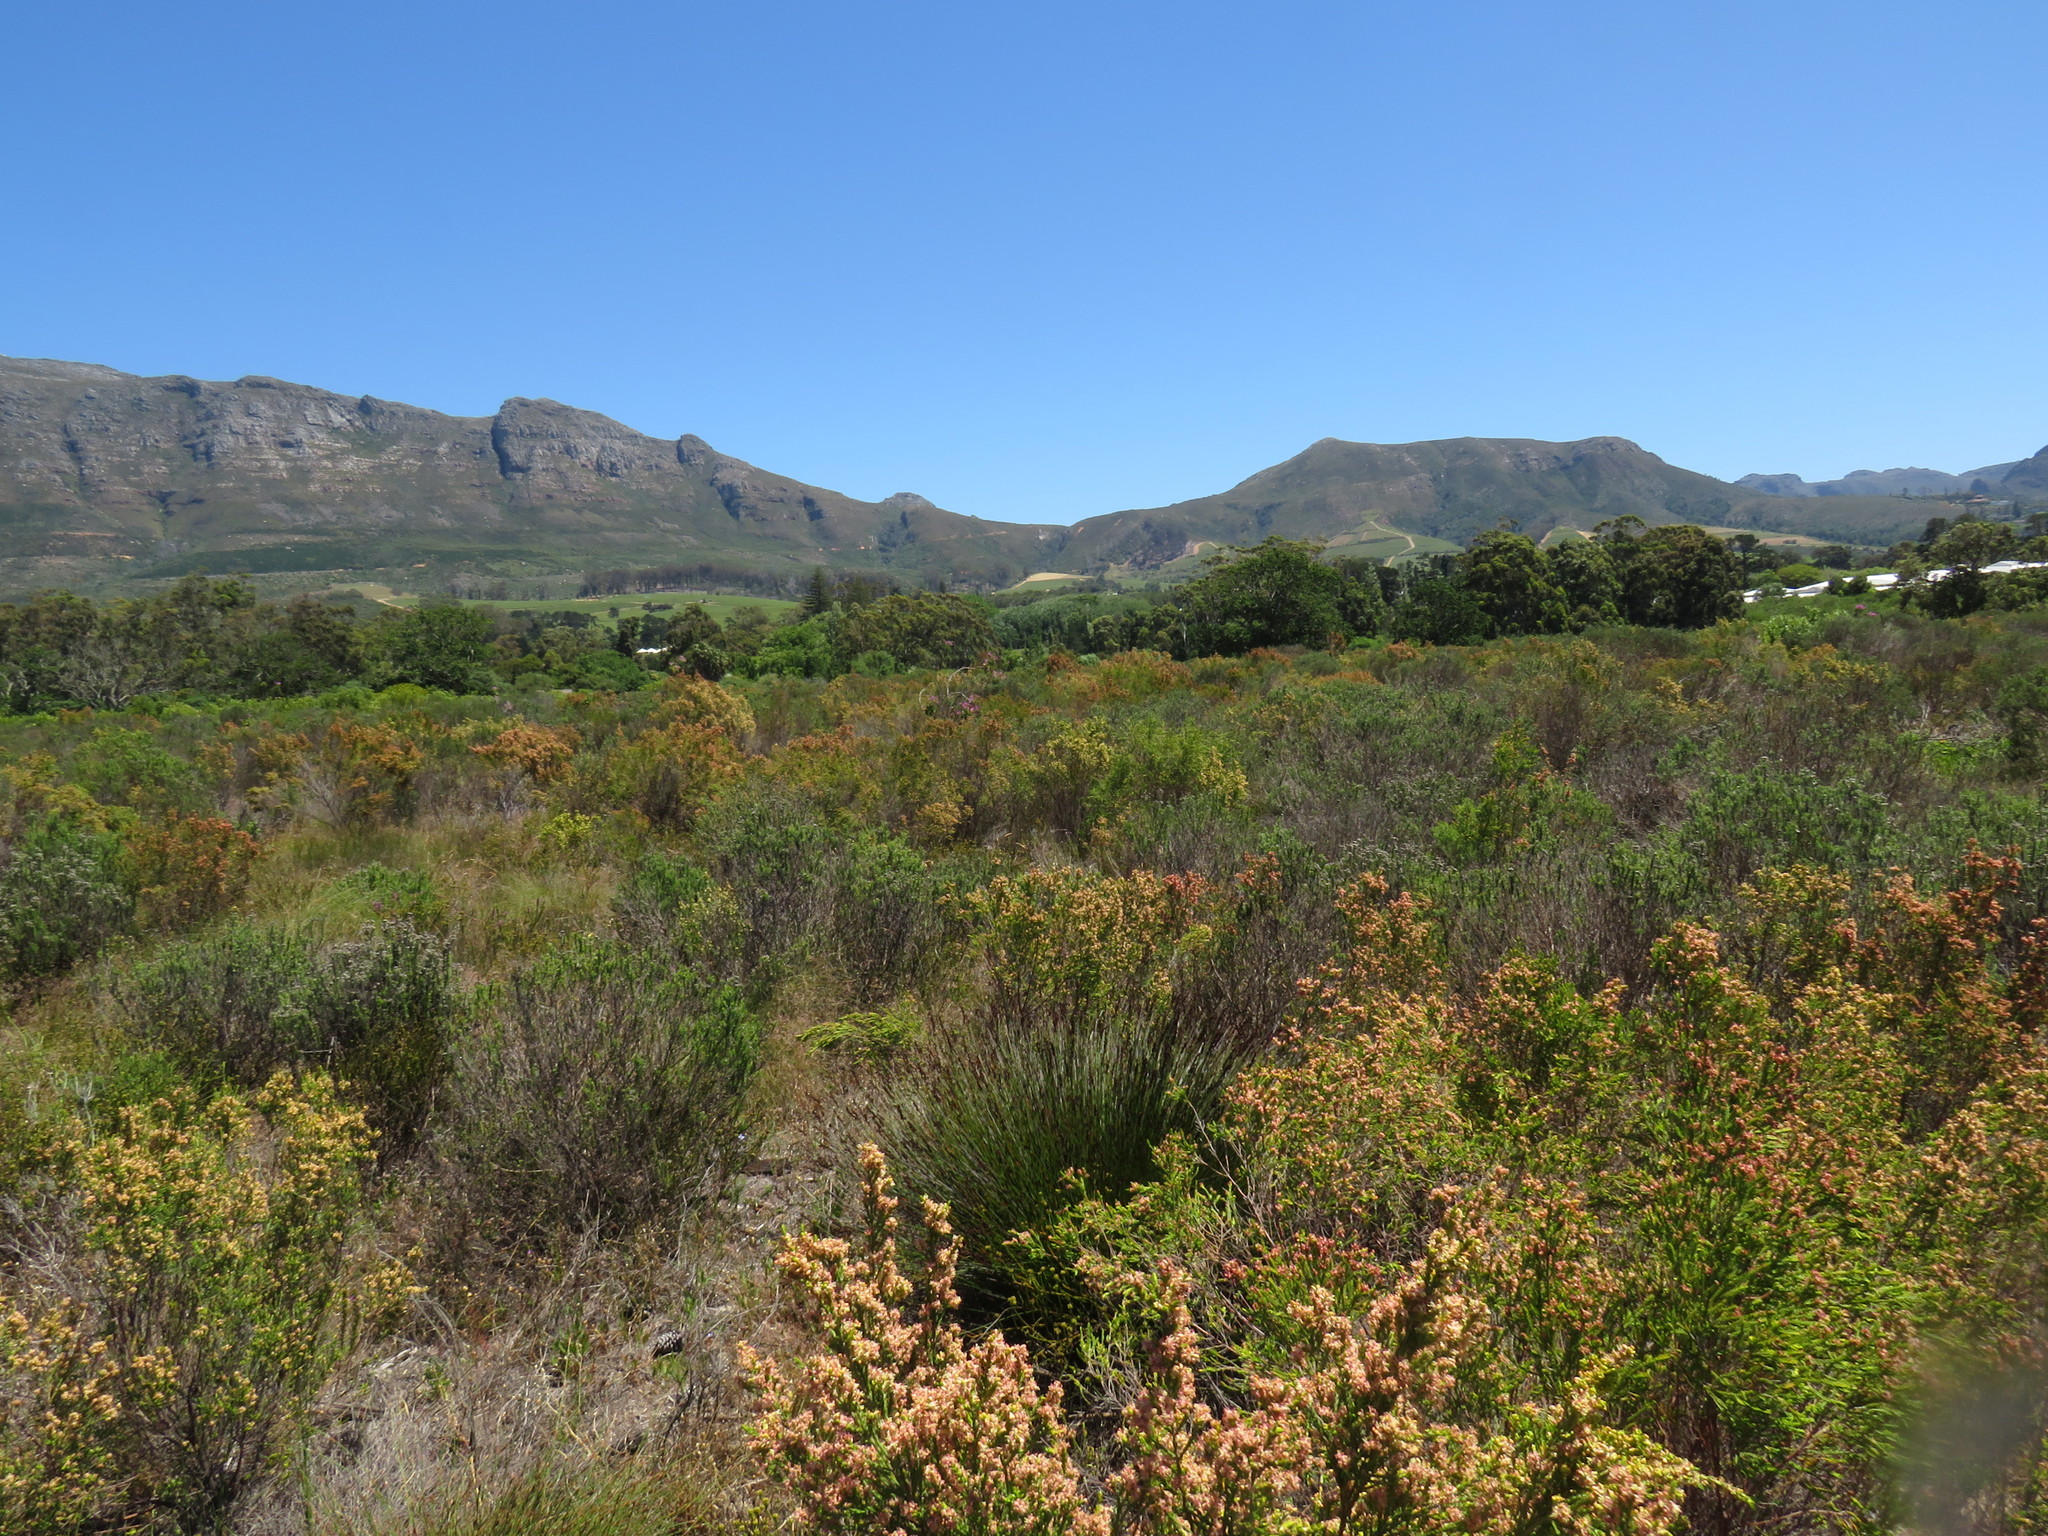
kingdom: Plantae
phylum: Tracheophyta
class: Magnoliopsida
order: Malvales
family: Thymelaeaceae
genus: Passerina
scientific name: Passerina corymbosa
